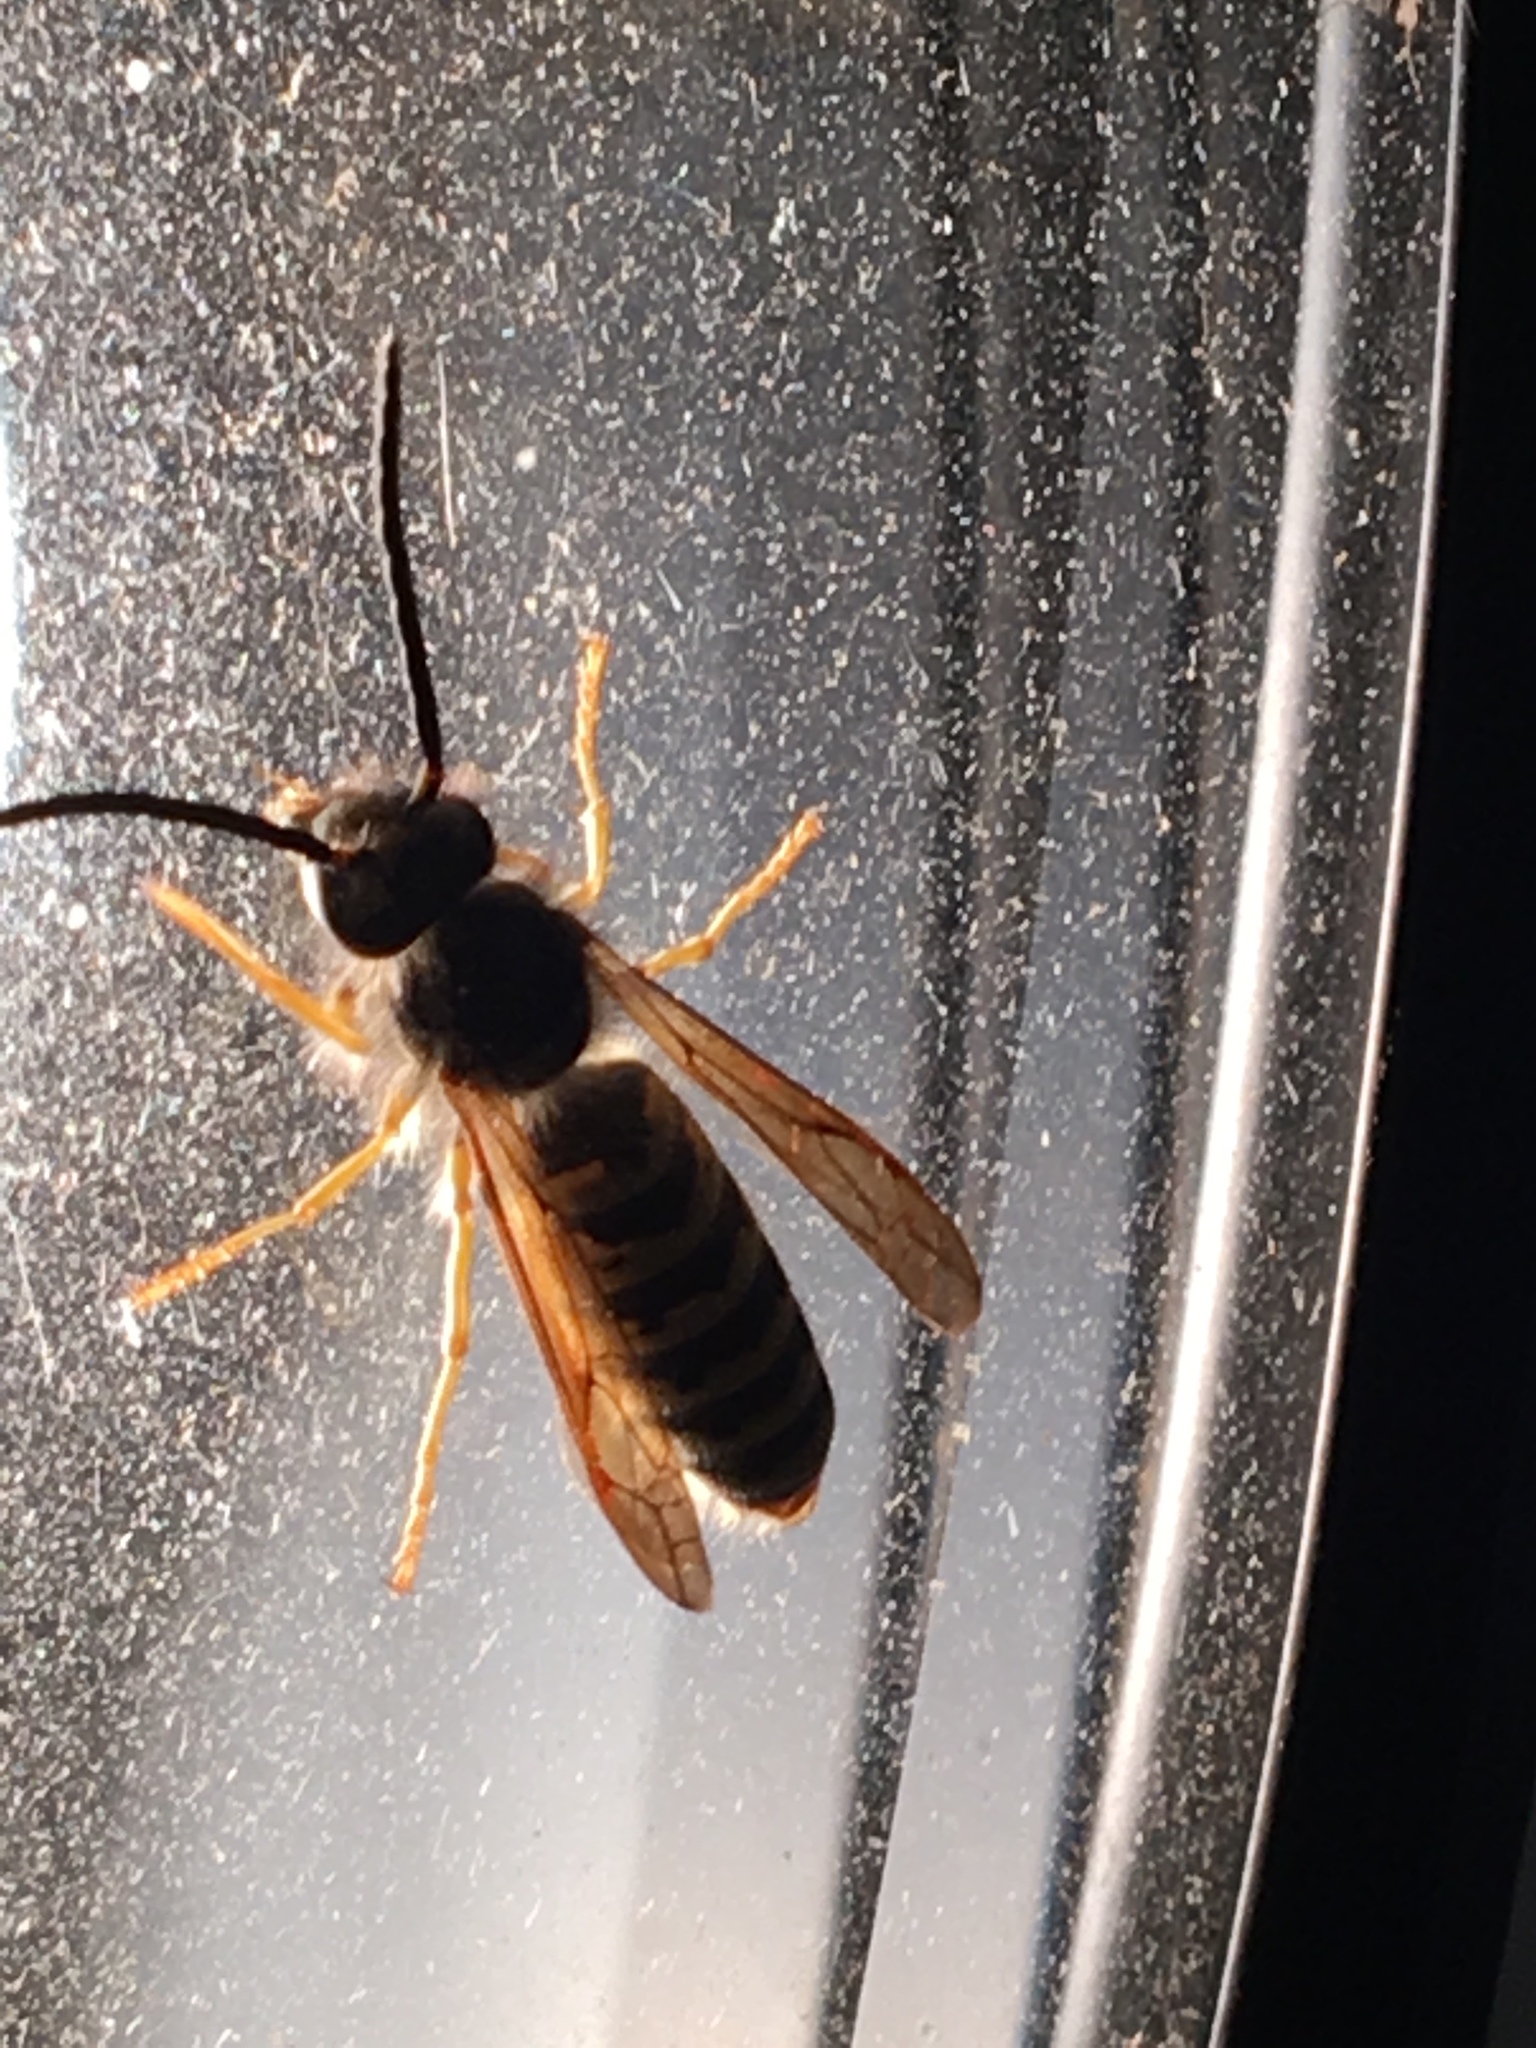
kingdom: Animalia
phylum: Arthropoda
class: Insecta
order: Hymenoptera
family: Vespidae
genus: Vespula
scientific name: Vespula flavopilosa
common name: Downy yellowjacket
